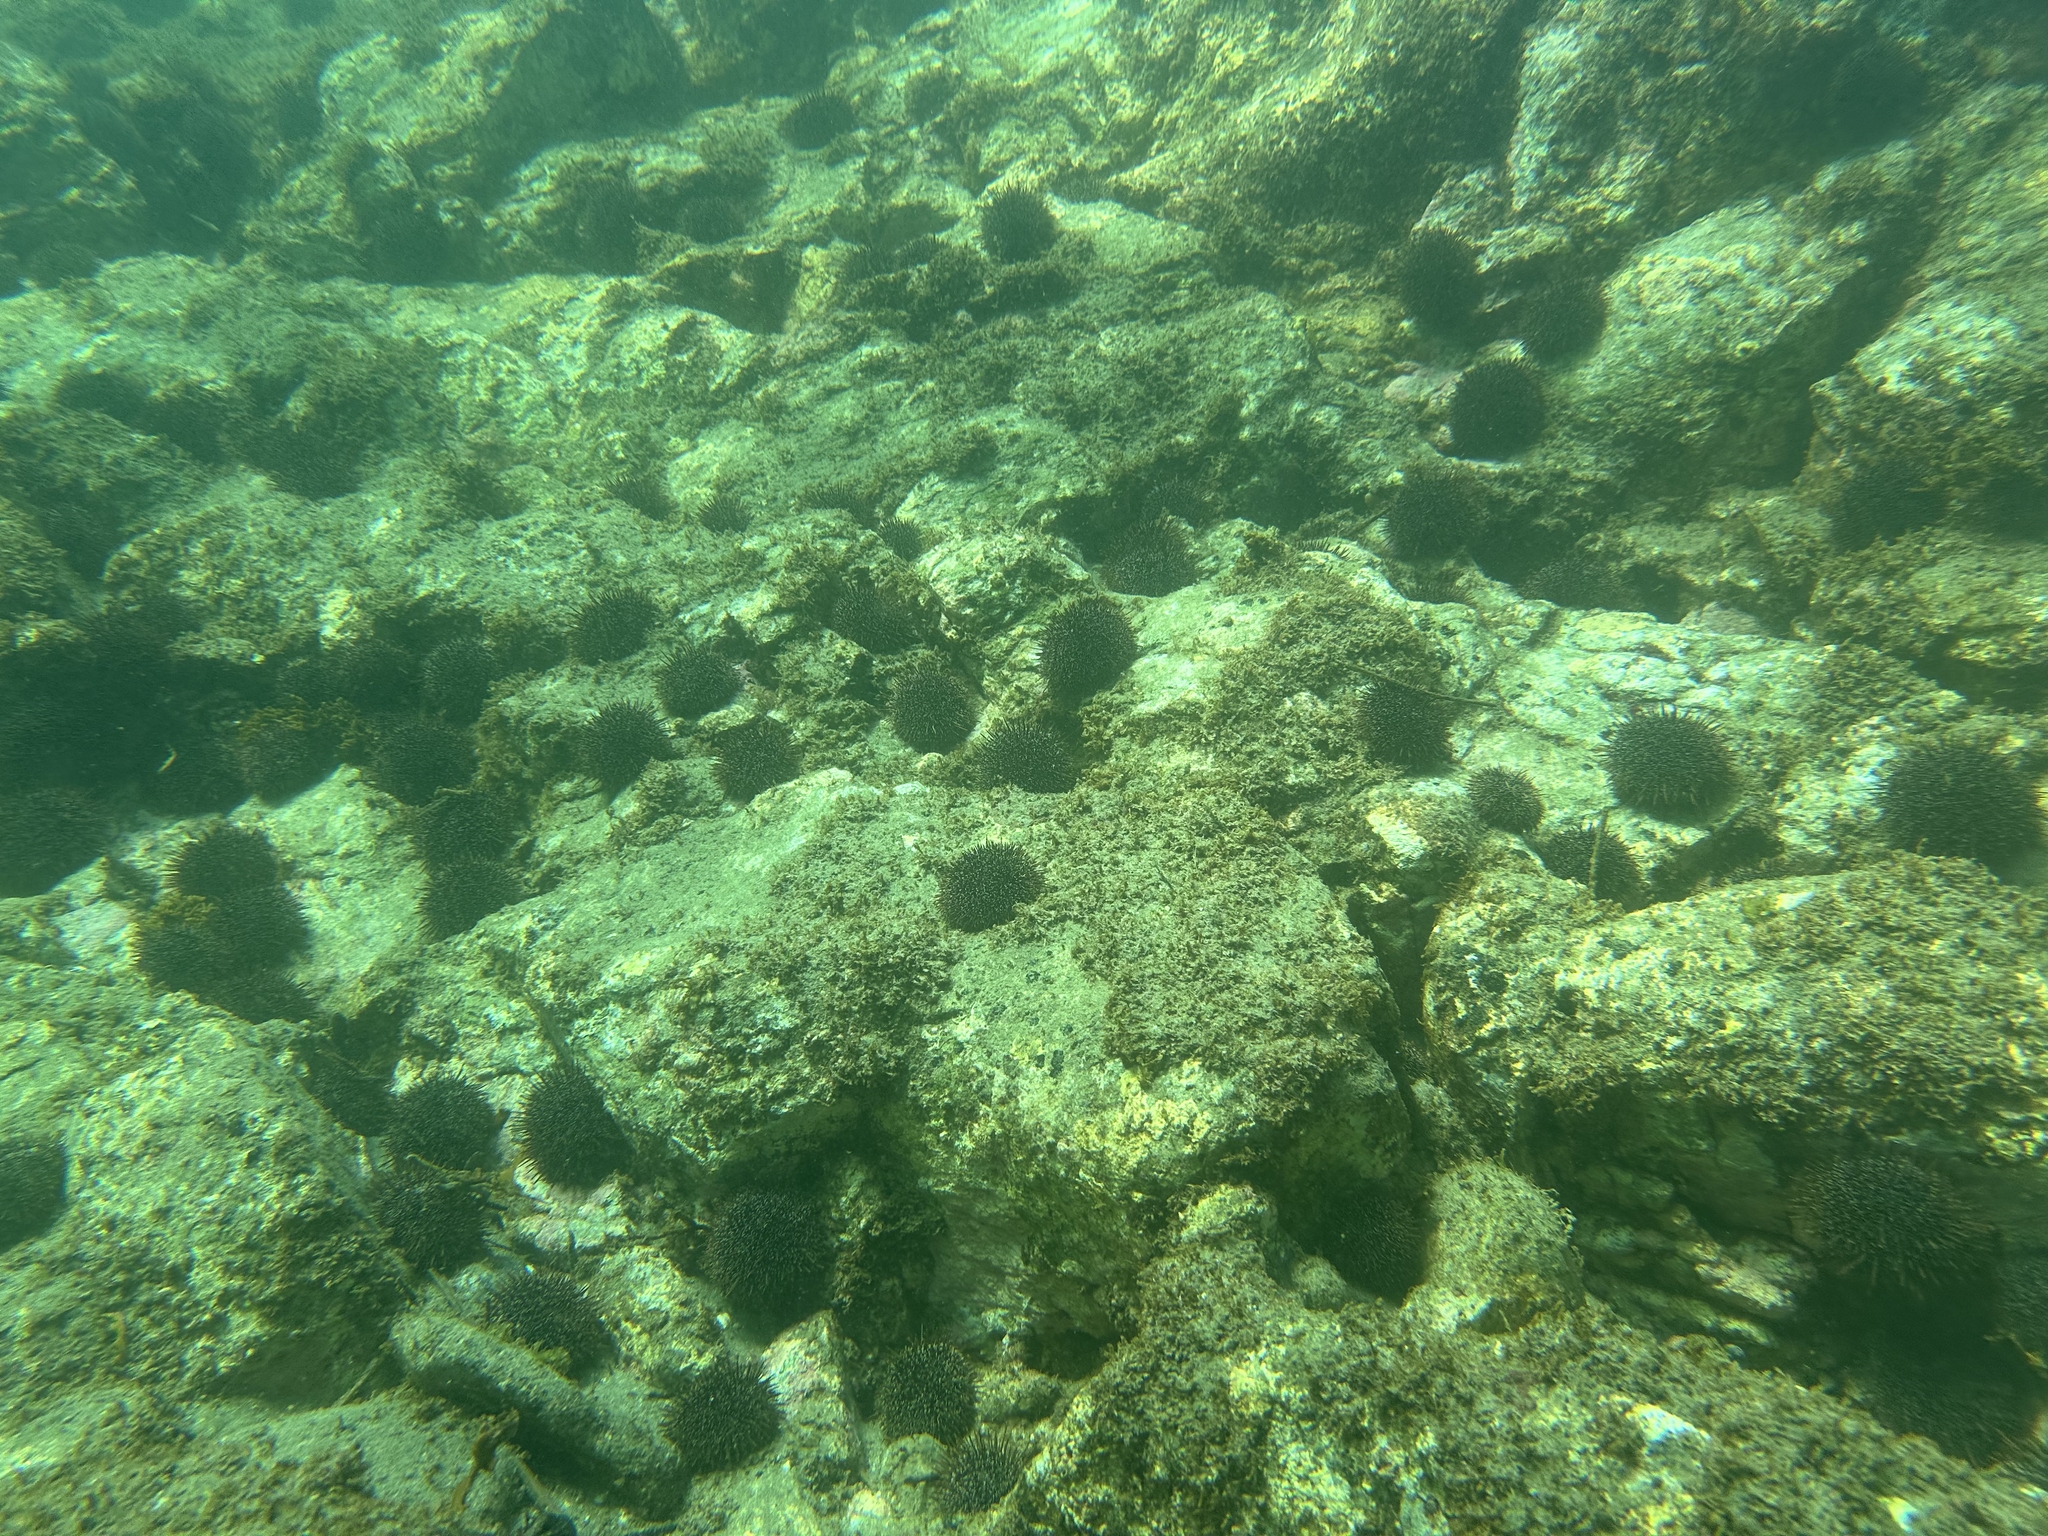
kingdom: Animalia
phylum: Echinodermata
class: Echinoidea
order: Camarodonta
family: Echinometridae
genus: Evechinus
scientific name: Evechinus chloroticus
